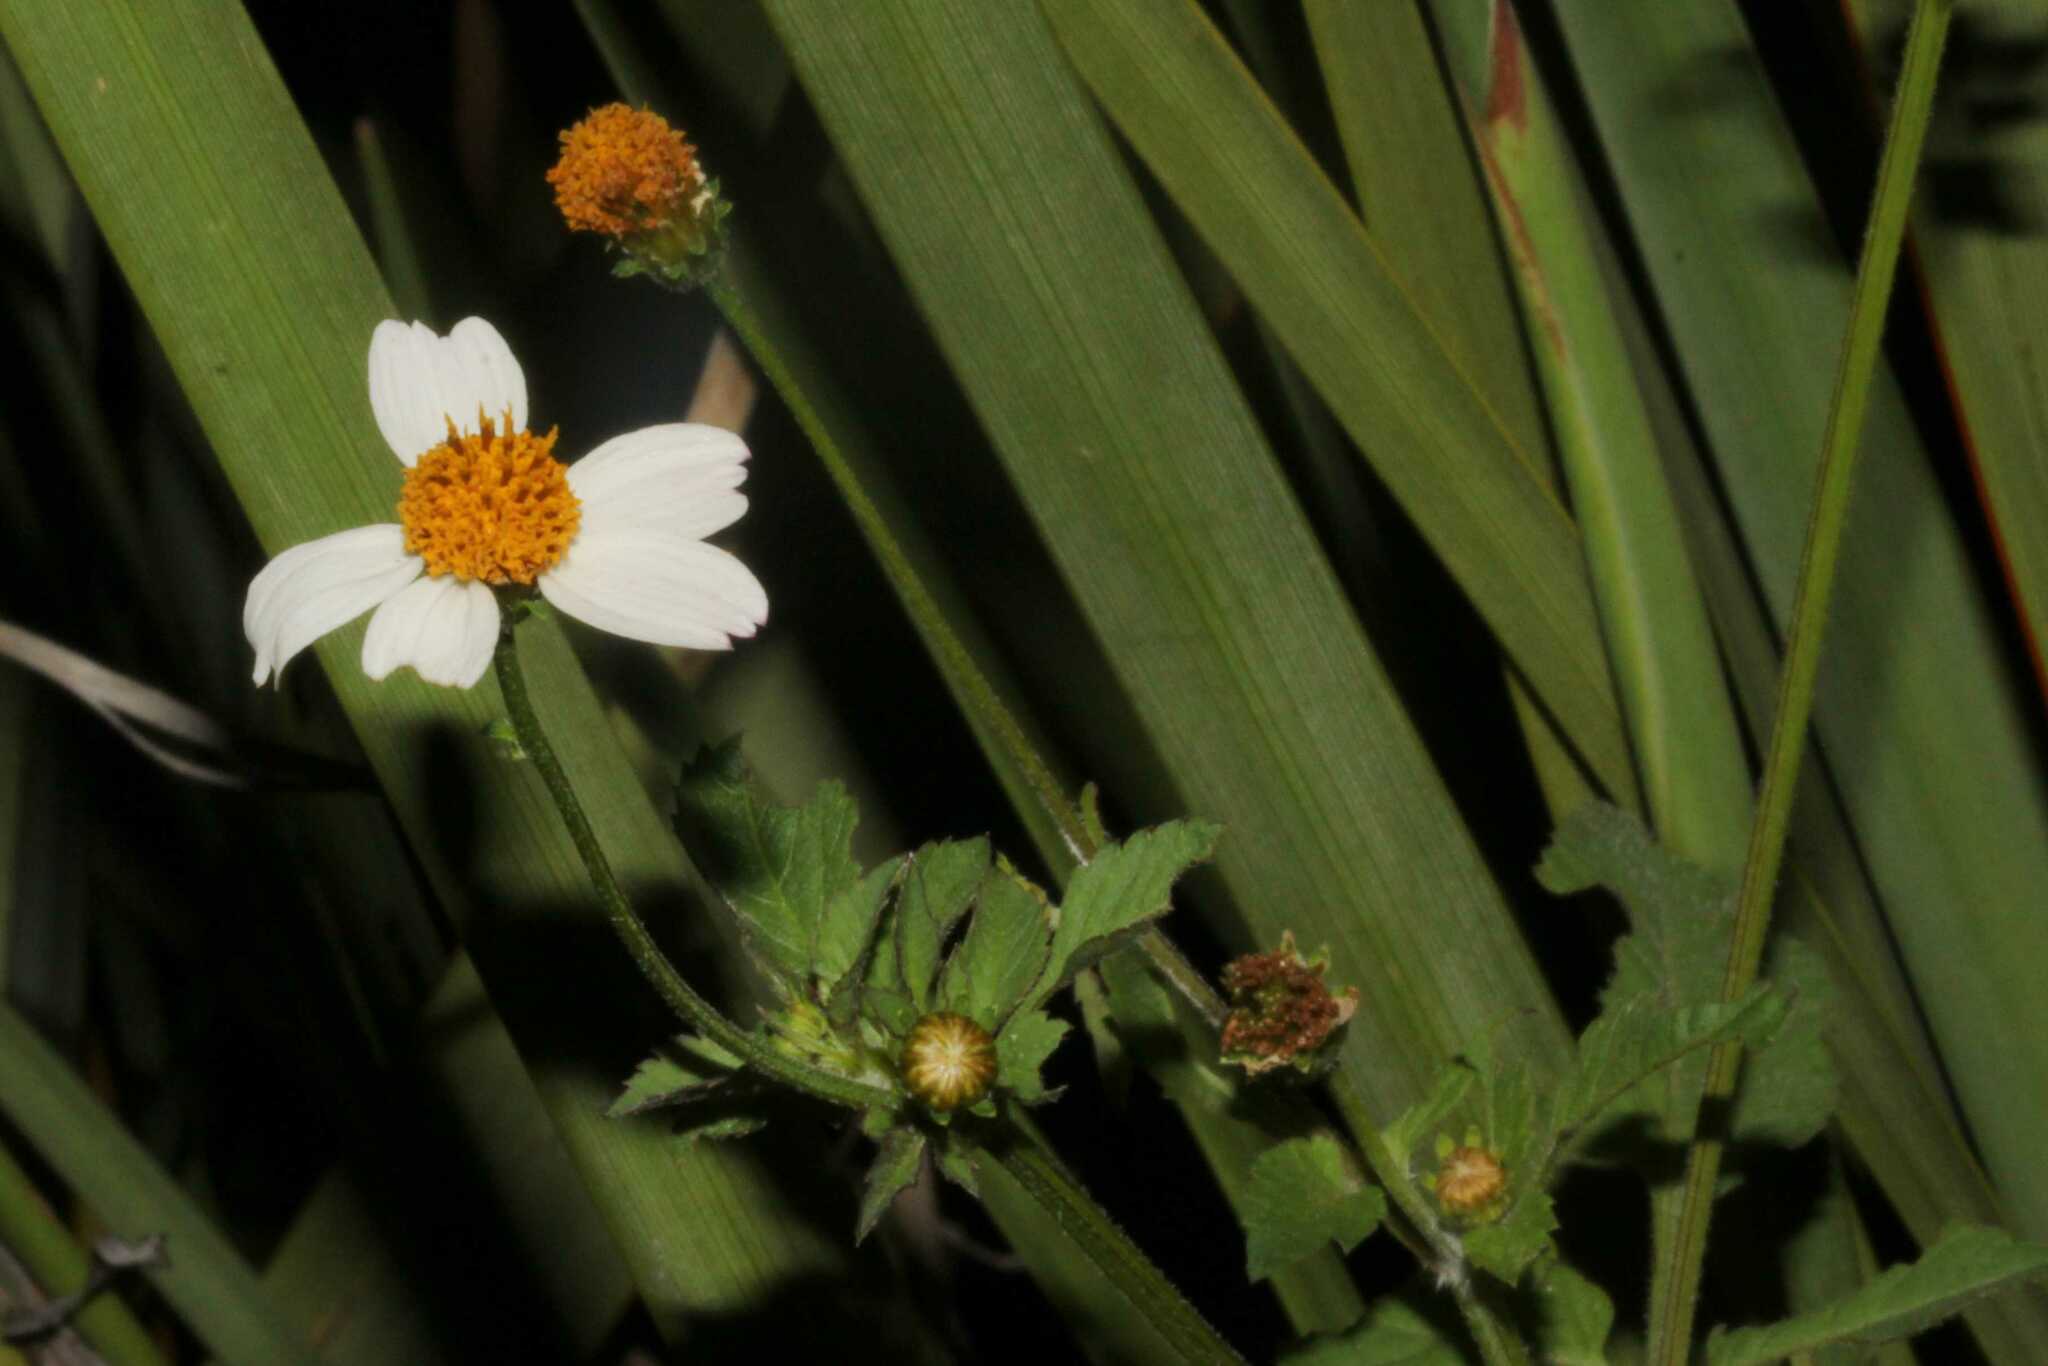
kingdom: Plantae
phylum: Tracheophyta
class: Magnoliopsida
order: Asterales
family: Asteraceae
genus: Bidens
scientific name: Bidens
